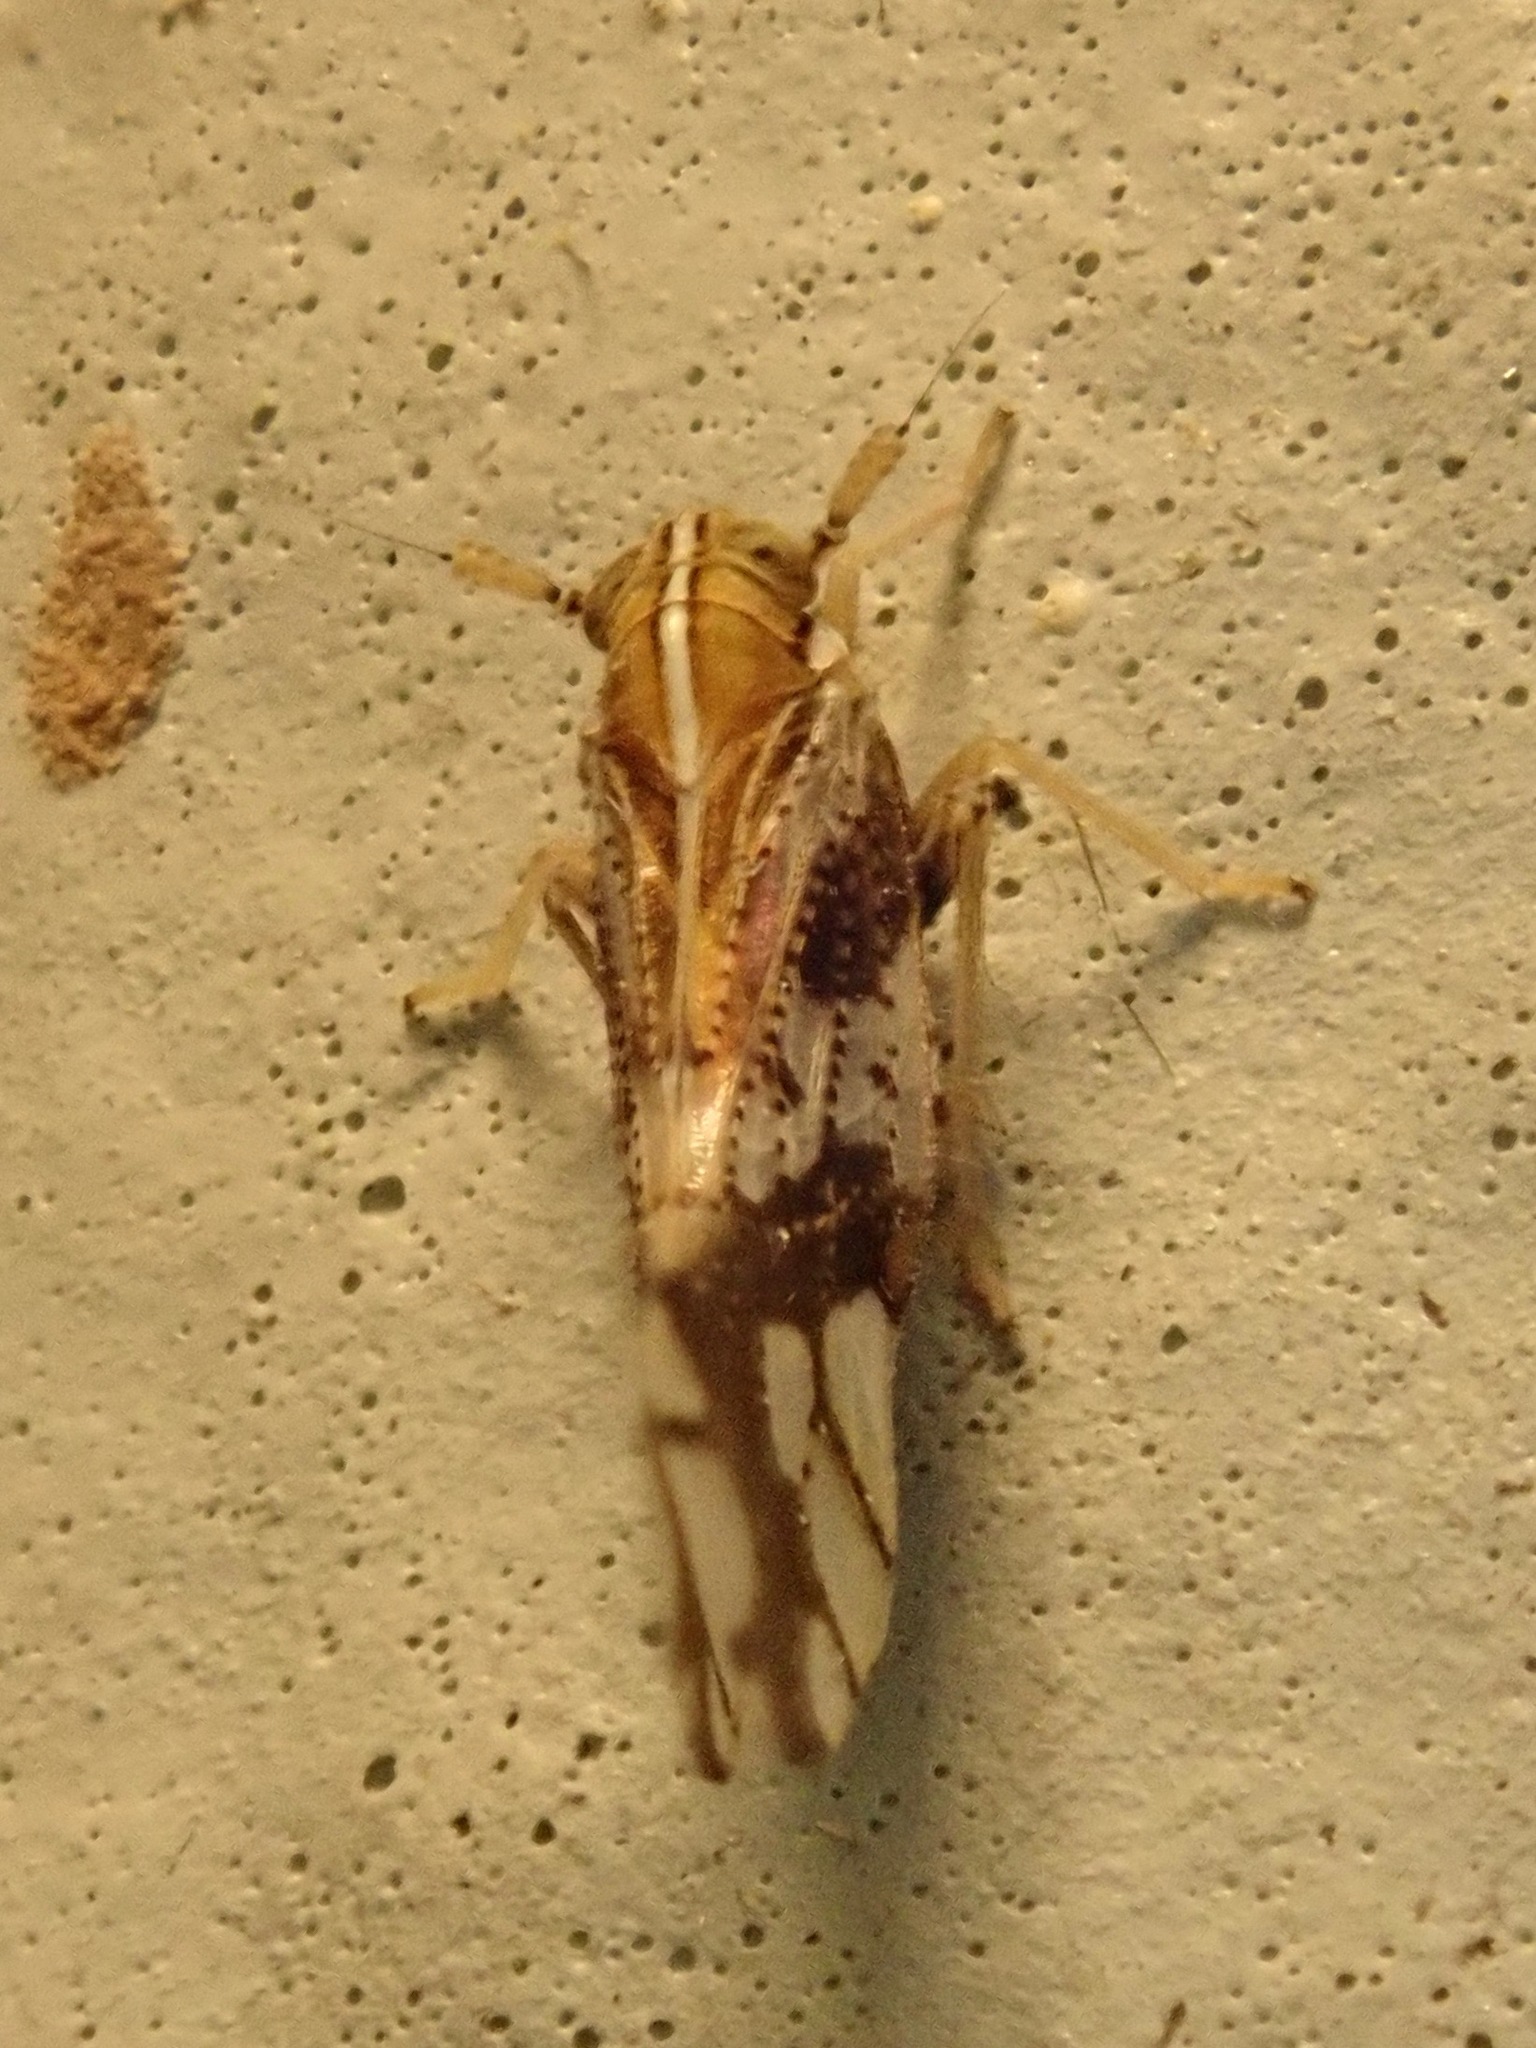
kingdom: Animalia
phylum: Arthropoda
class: Insecta
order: Hemiptera
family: Delphacidae
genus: Liburniella
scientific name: Liburniella ornata
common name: Ornate planthopper
